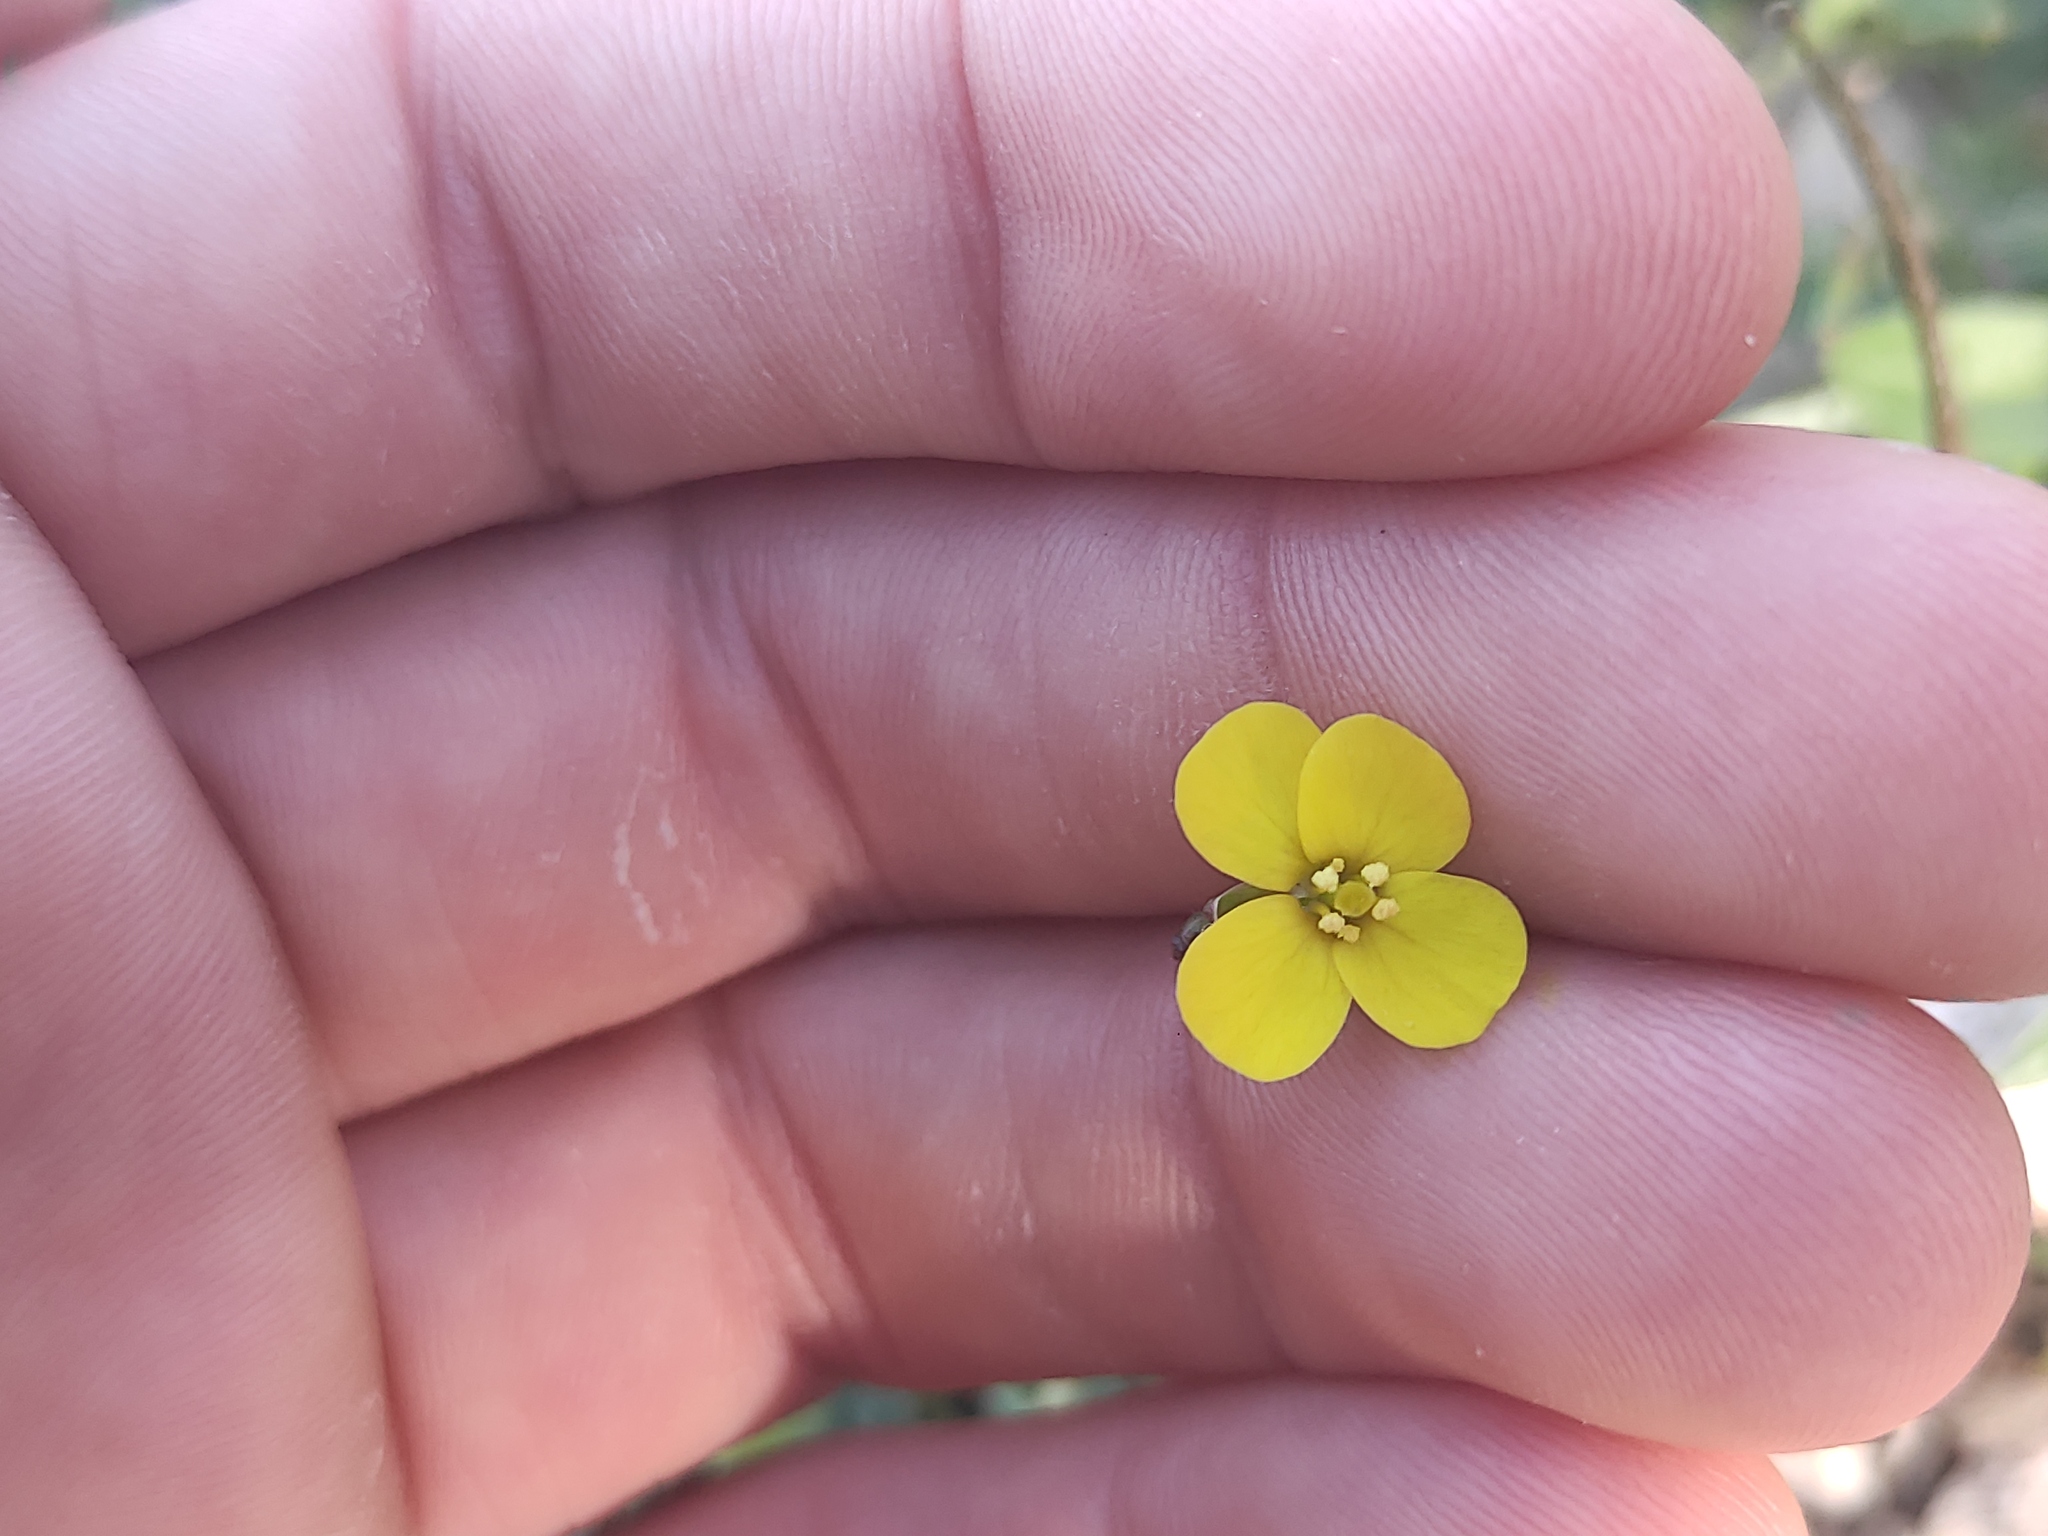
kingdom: Plantae
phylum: Tracheophyta
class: Magnoliopsida
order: Brassicales
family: Brassicaceae
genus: Diplotaxis
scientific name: Diplotaxis muralis
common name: Annual wall-rocket
